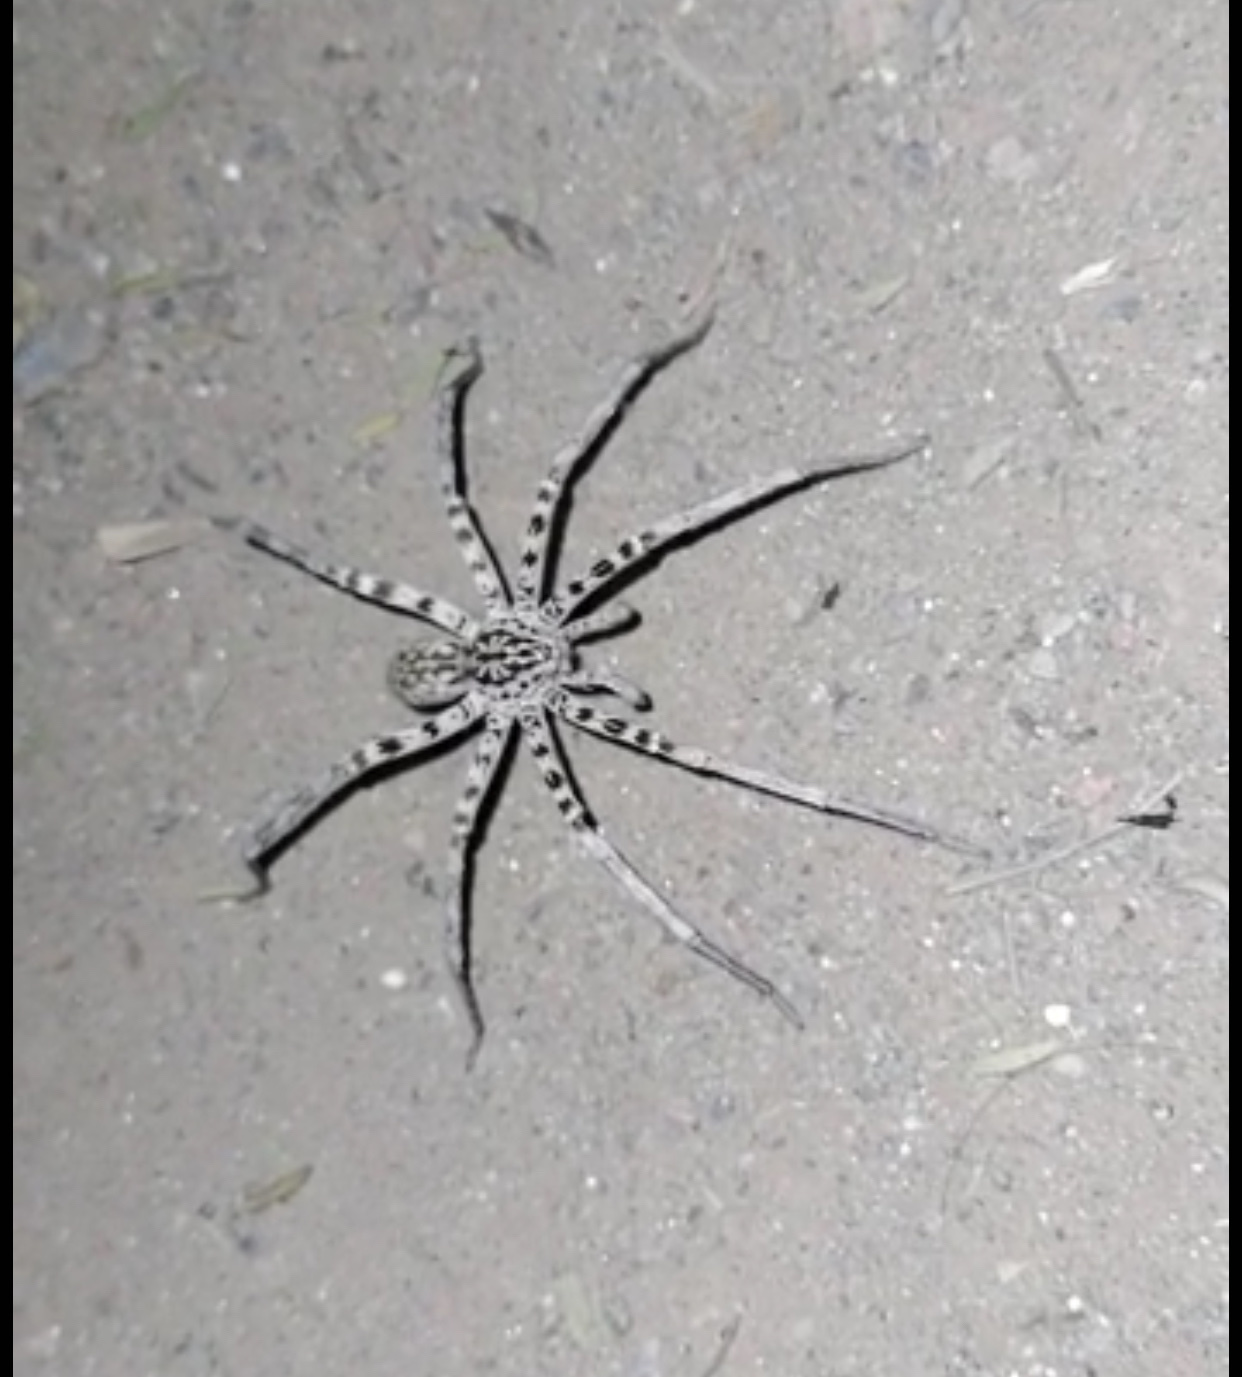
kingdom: Animalia
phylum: Arthropoda
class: Arachnida
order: Araneae
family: Xenoctenidae
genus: Xenoctenus
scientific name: Xenoctenus unguiculatus
